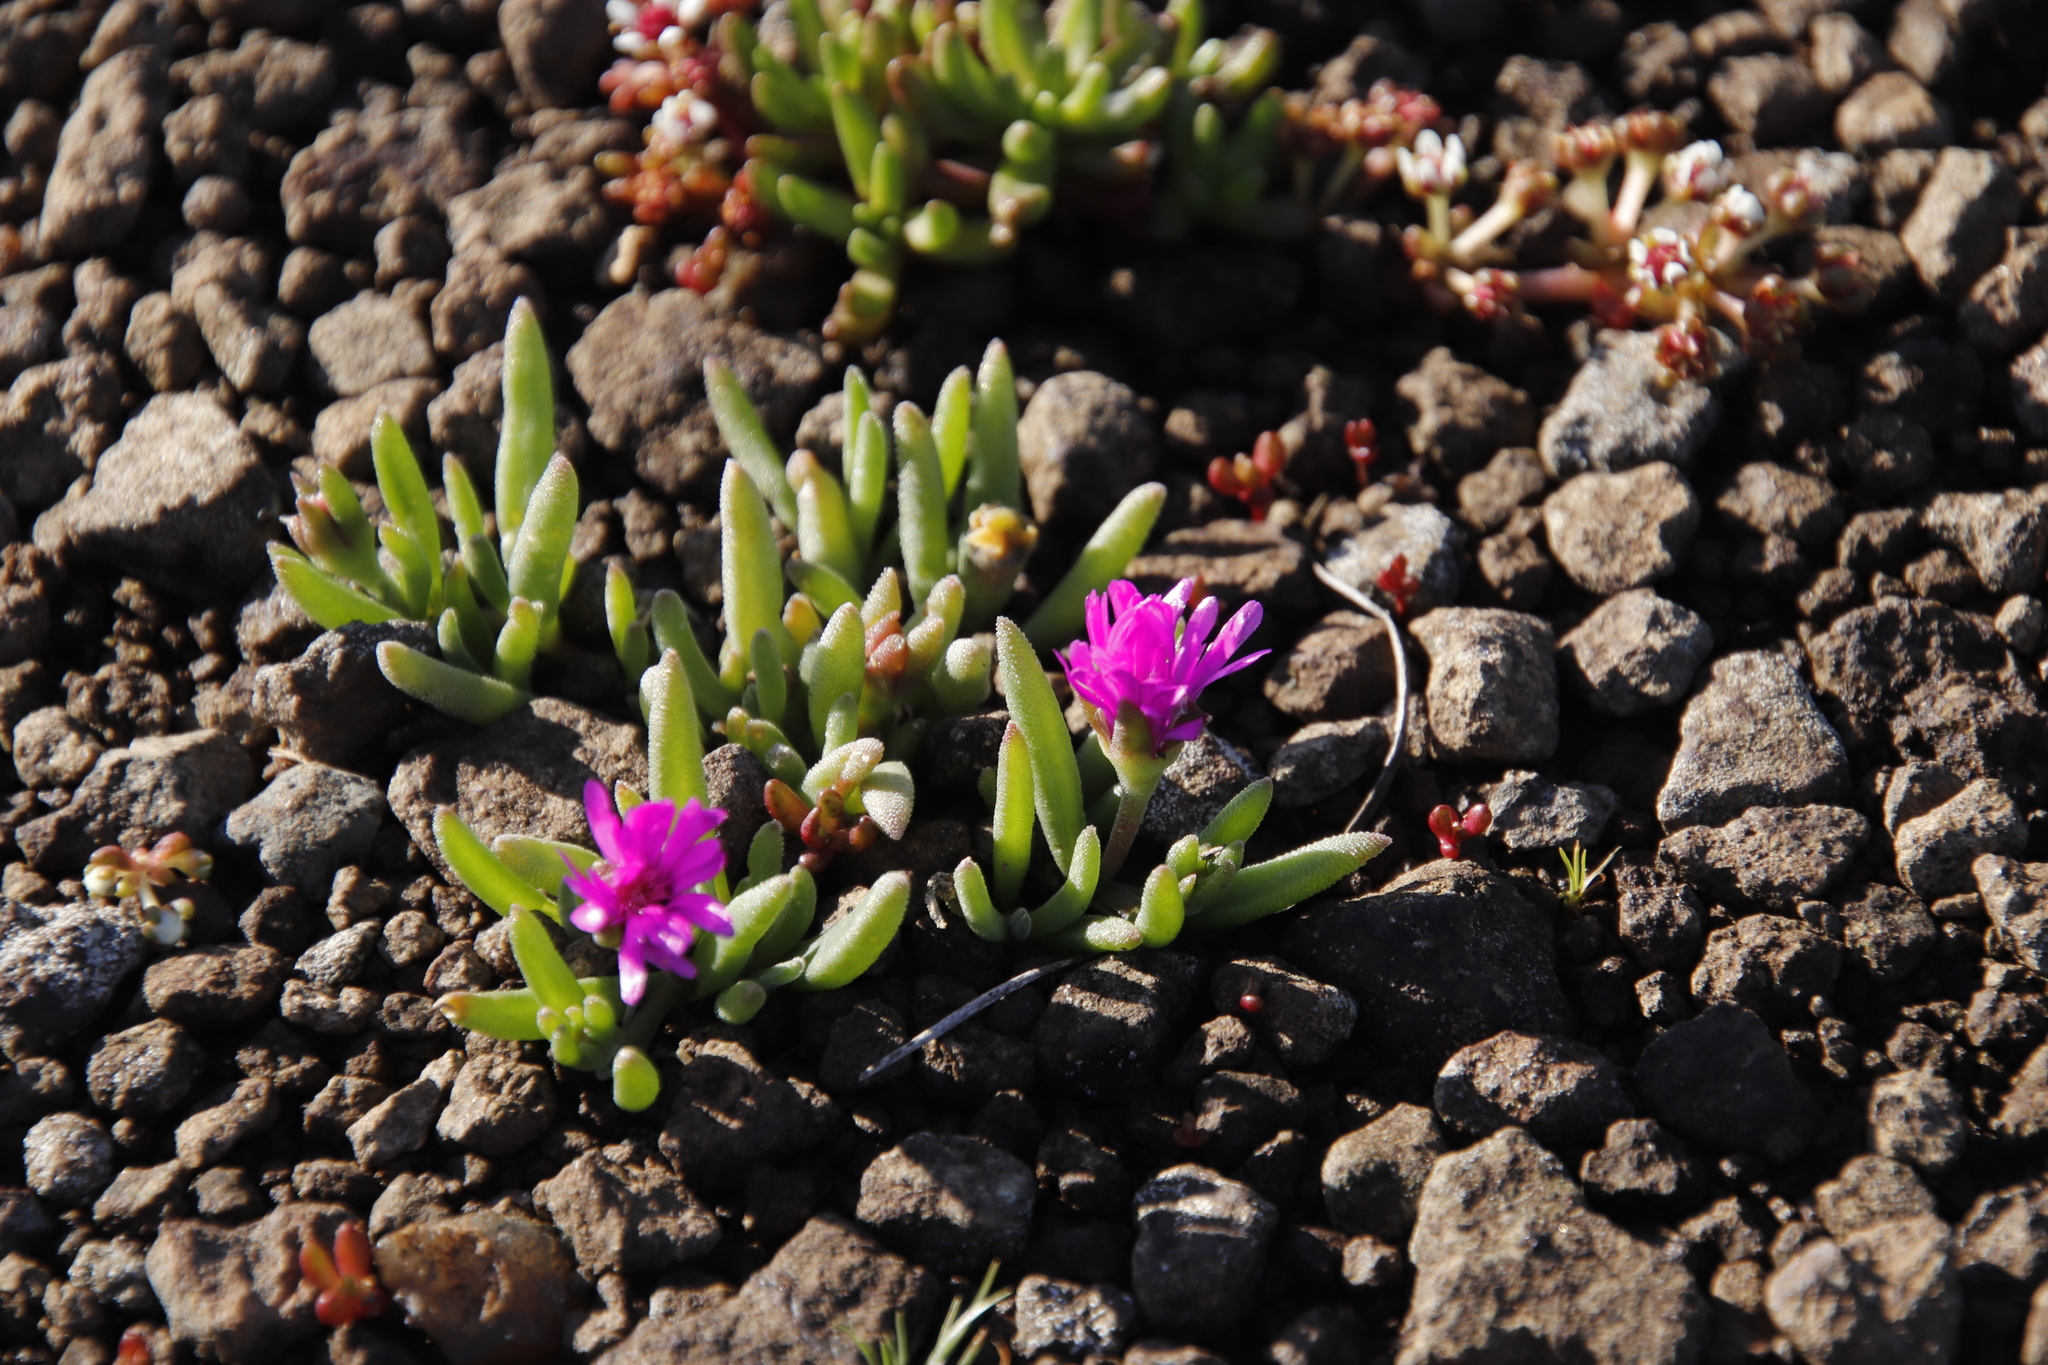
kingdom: Plantae
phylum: Tracheophyta
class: Magnoliopsida
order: Caryophyllales
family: Aizoaceae
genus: Delosperma
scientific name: Delosperma basuticum
